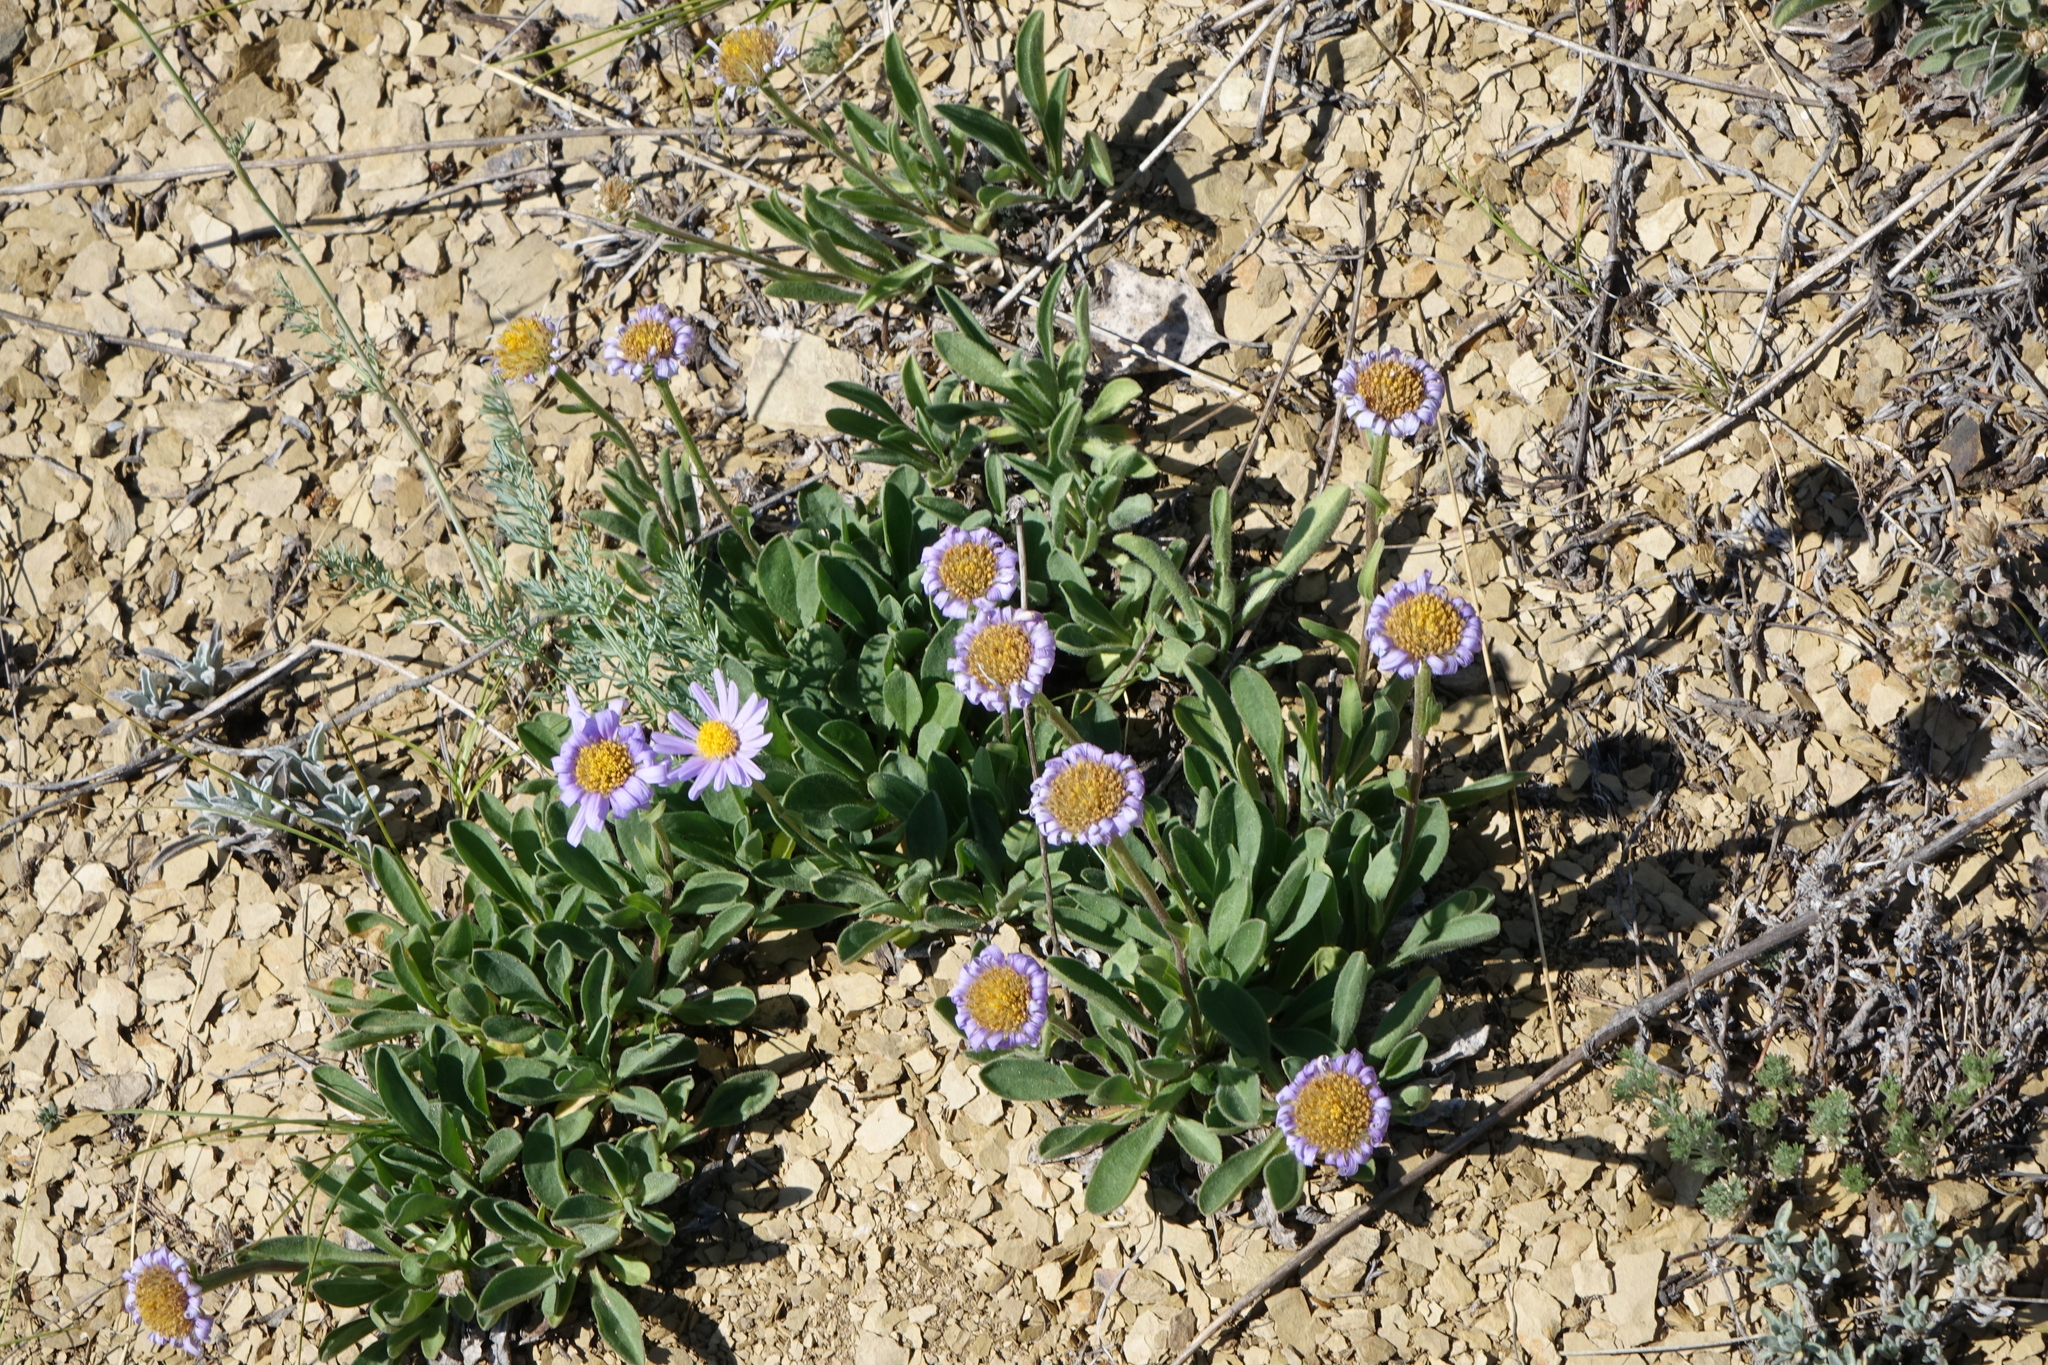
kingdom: Plantae
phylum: Tracheophyta
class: Magnoliopsida
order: Asterales
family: Asteraceae
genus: Aster
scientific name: Aster alpinus
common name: Alpine aster
